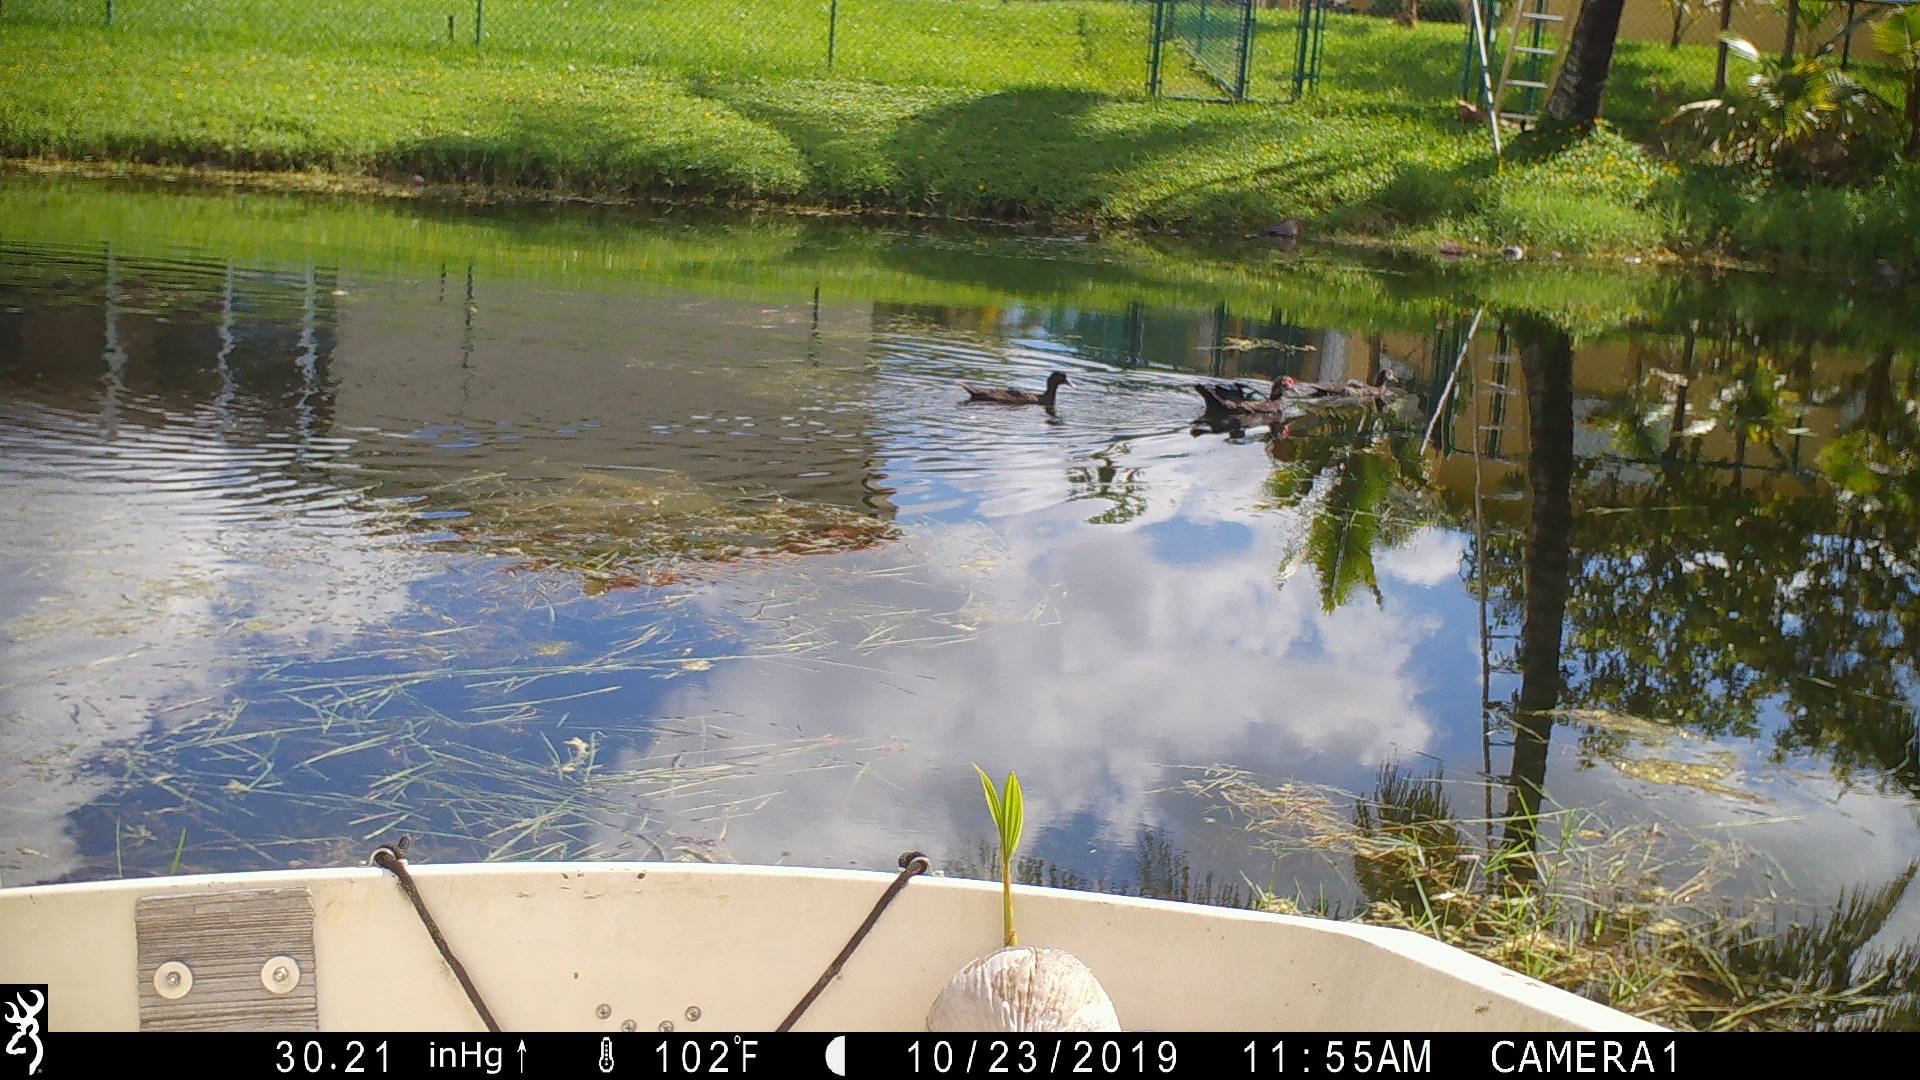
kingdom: Animalia
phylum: Chordata
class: Aves
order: Anseriformes
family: Anatidae
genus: Cairina
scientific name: Cairina moschata
